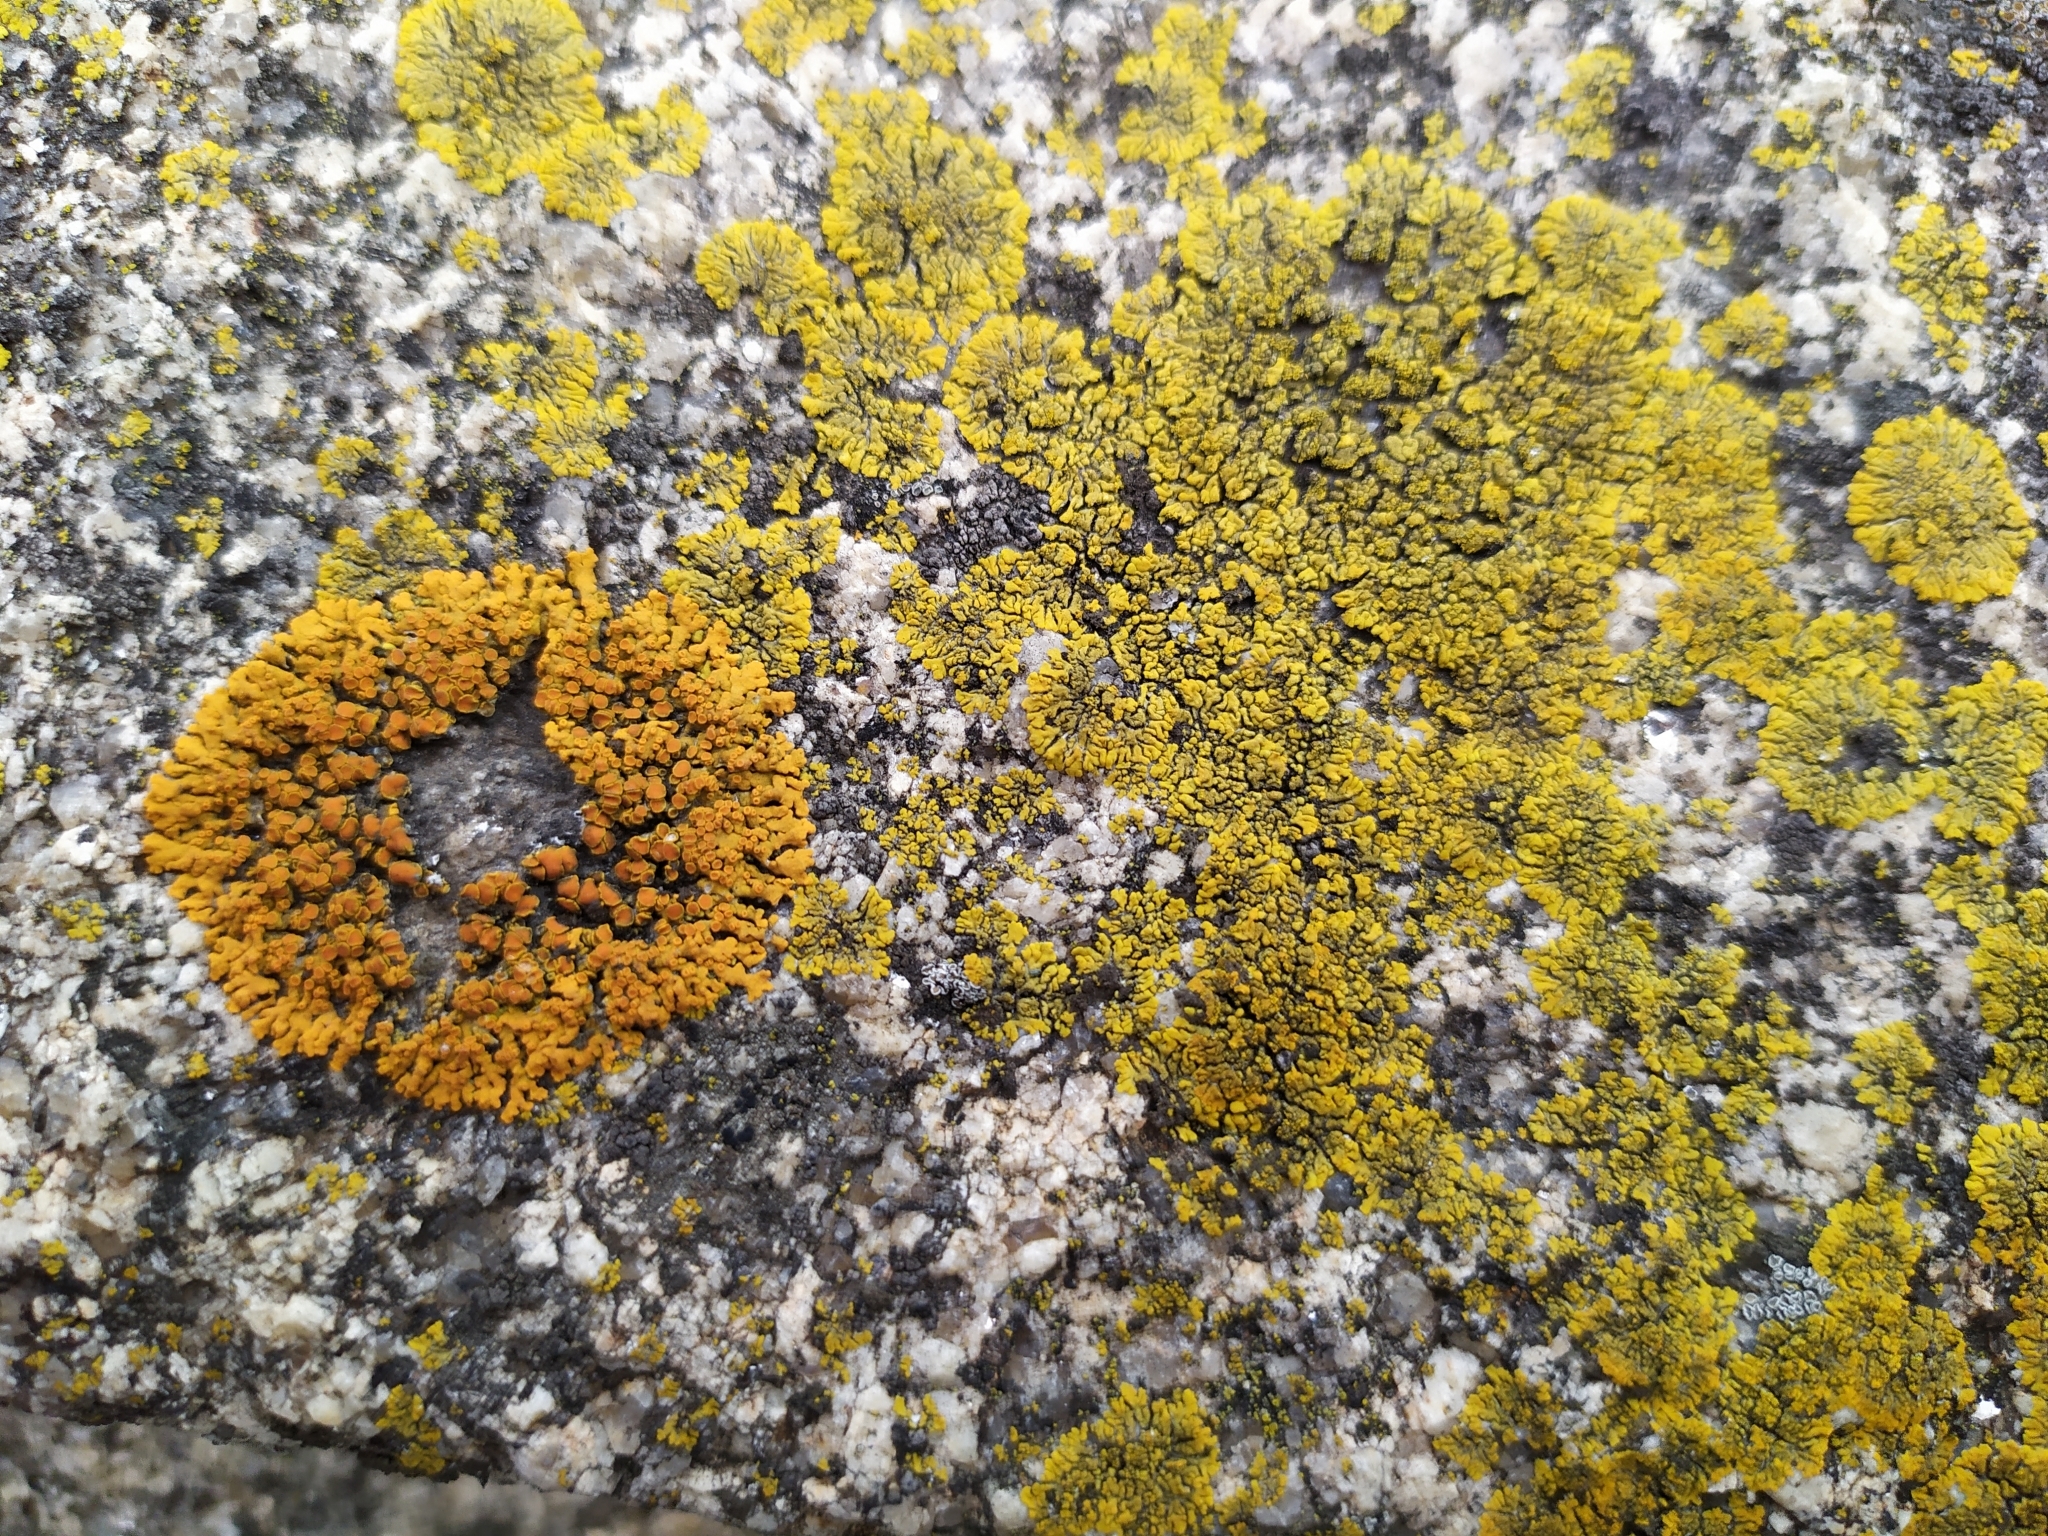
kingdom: Fungi
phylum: Ascomycota
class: Lecanoromycetes
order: Teloschistales
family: Teloschistaceae
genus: Xanthoria
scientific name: Xanthoria elegans
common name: Elegant sunburst lichen
